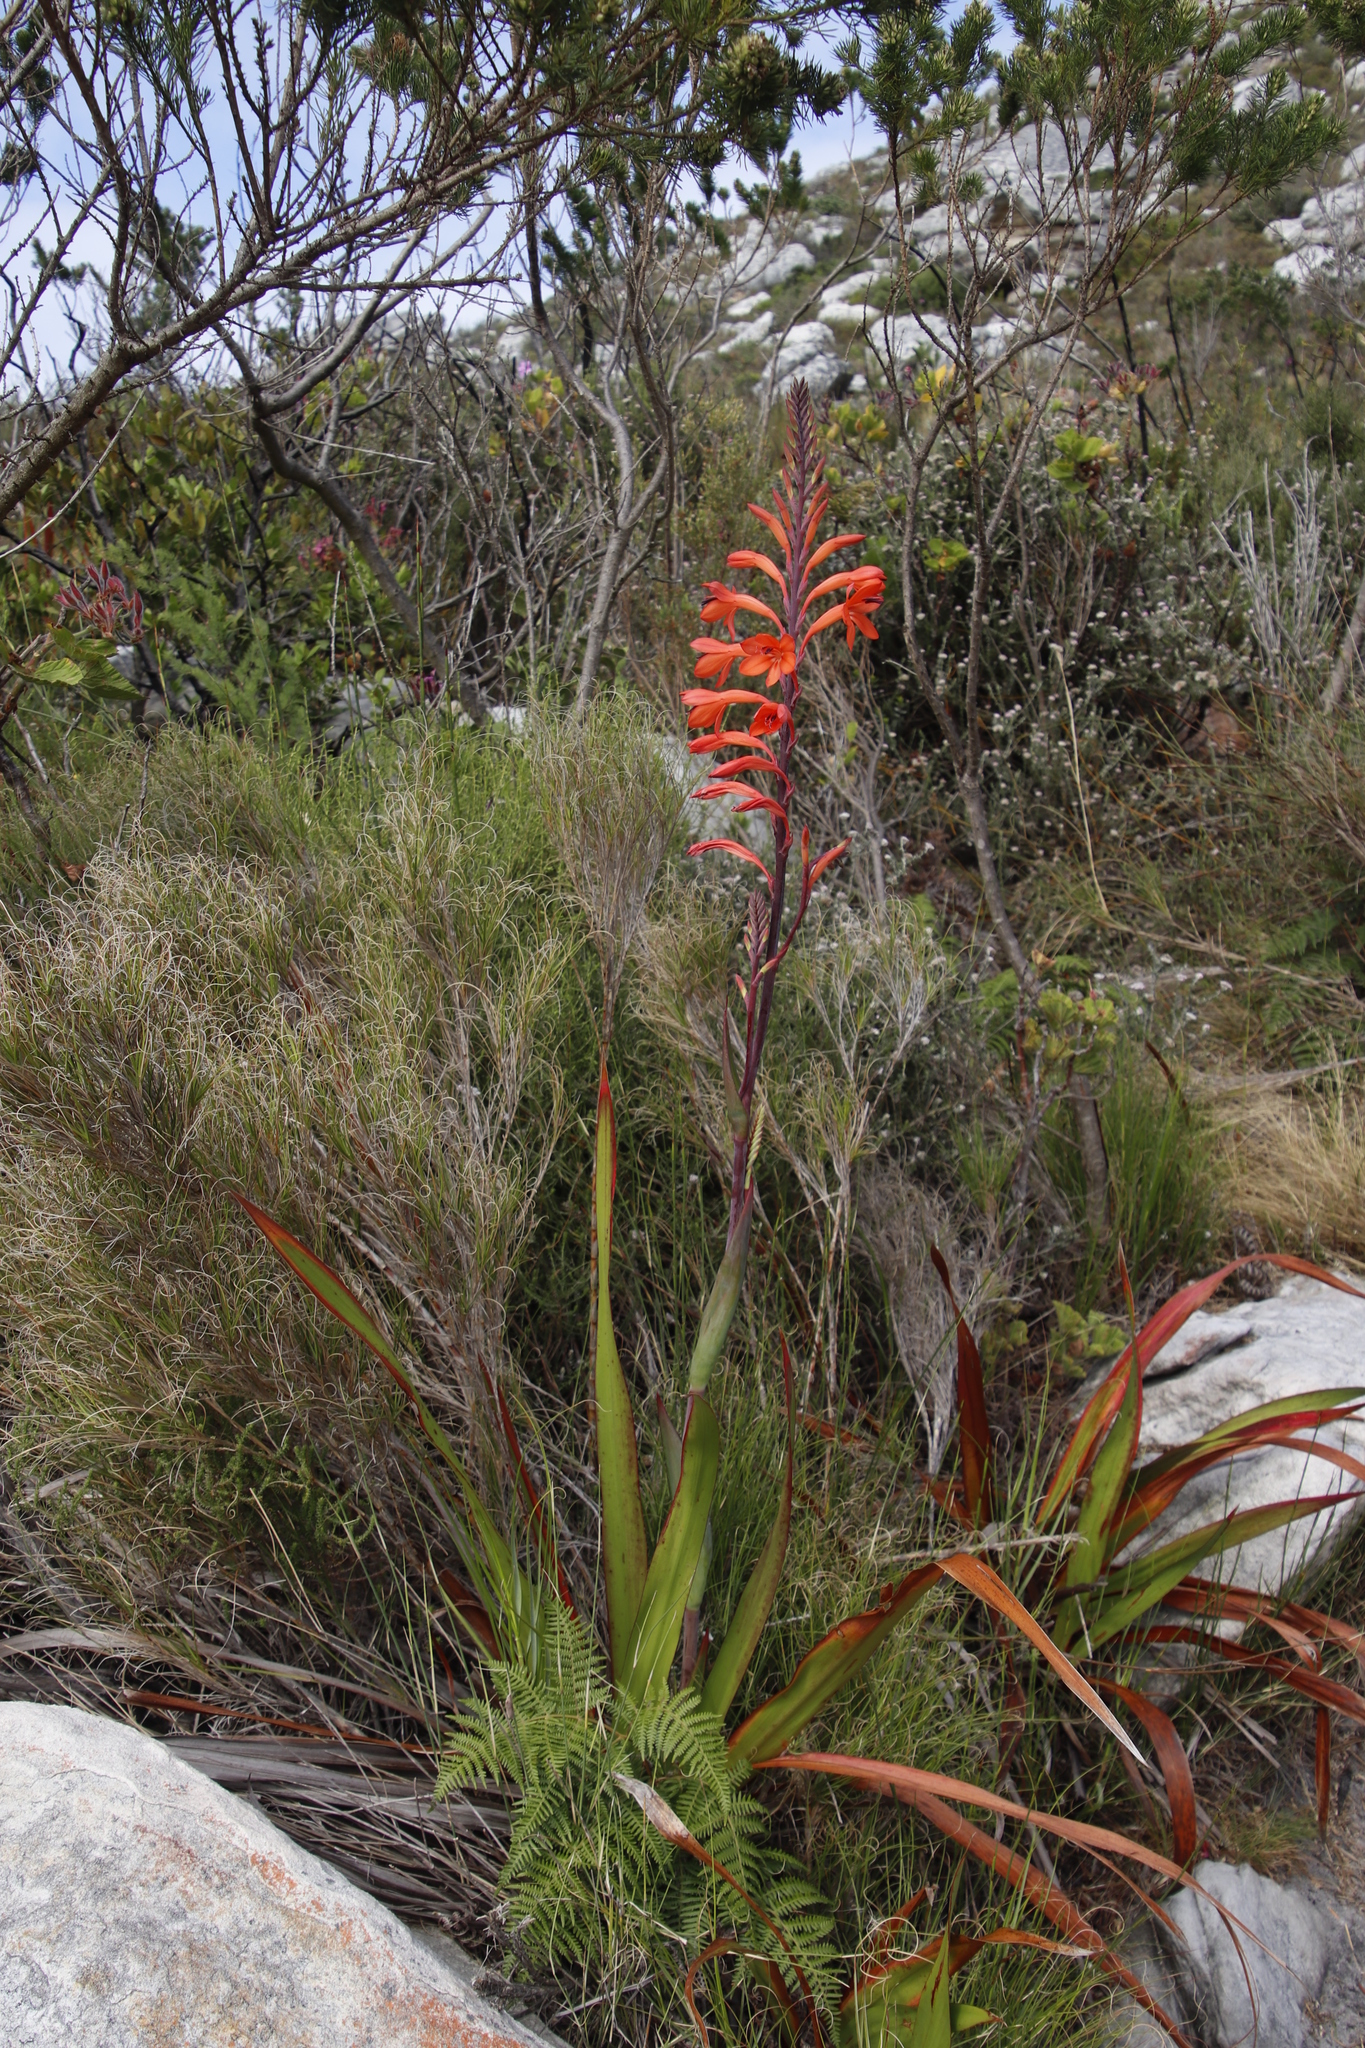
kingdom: Plantae
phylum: Tracheophyta
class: Liliopsida
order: Asparagales
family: Iridaceae
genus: Watsonia
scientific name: Watsonia tabularis
